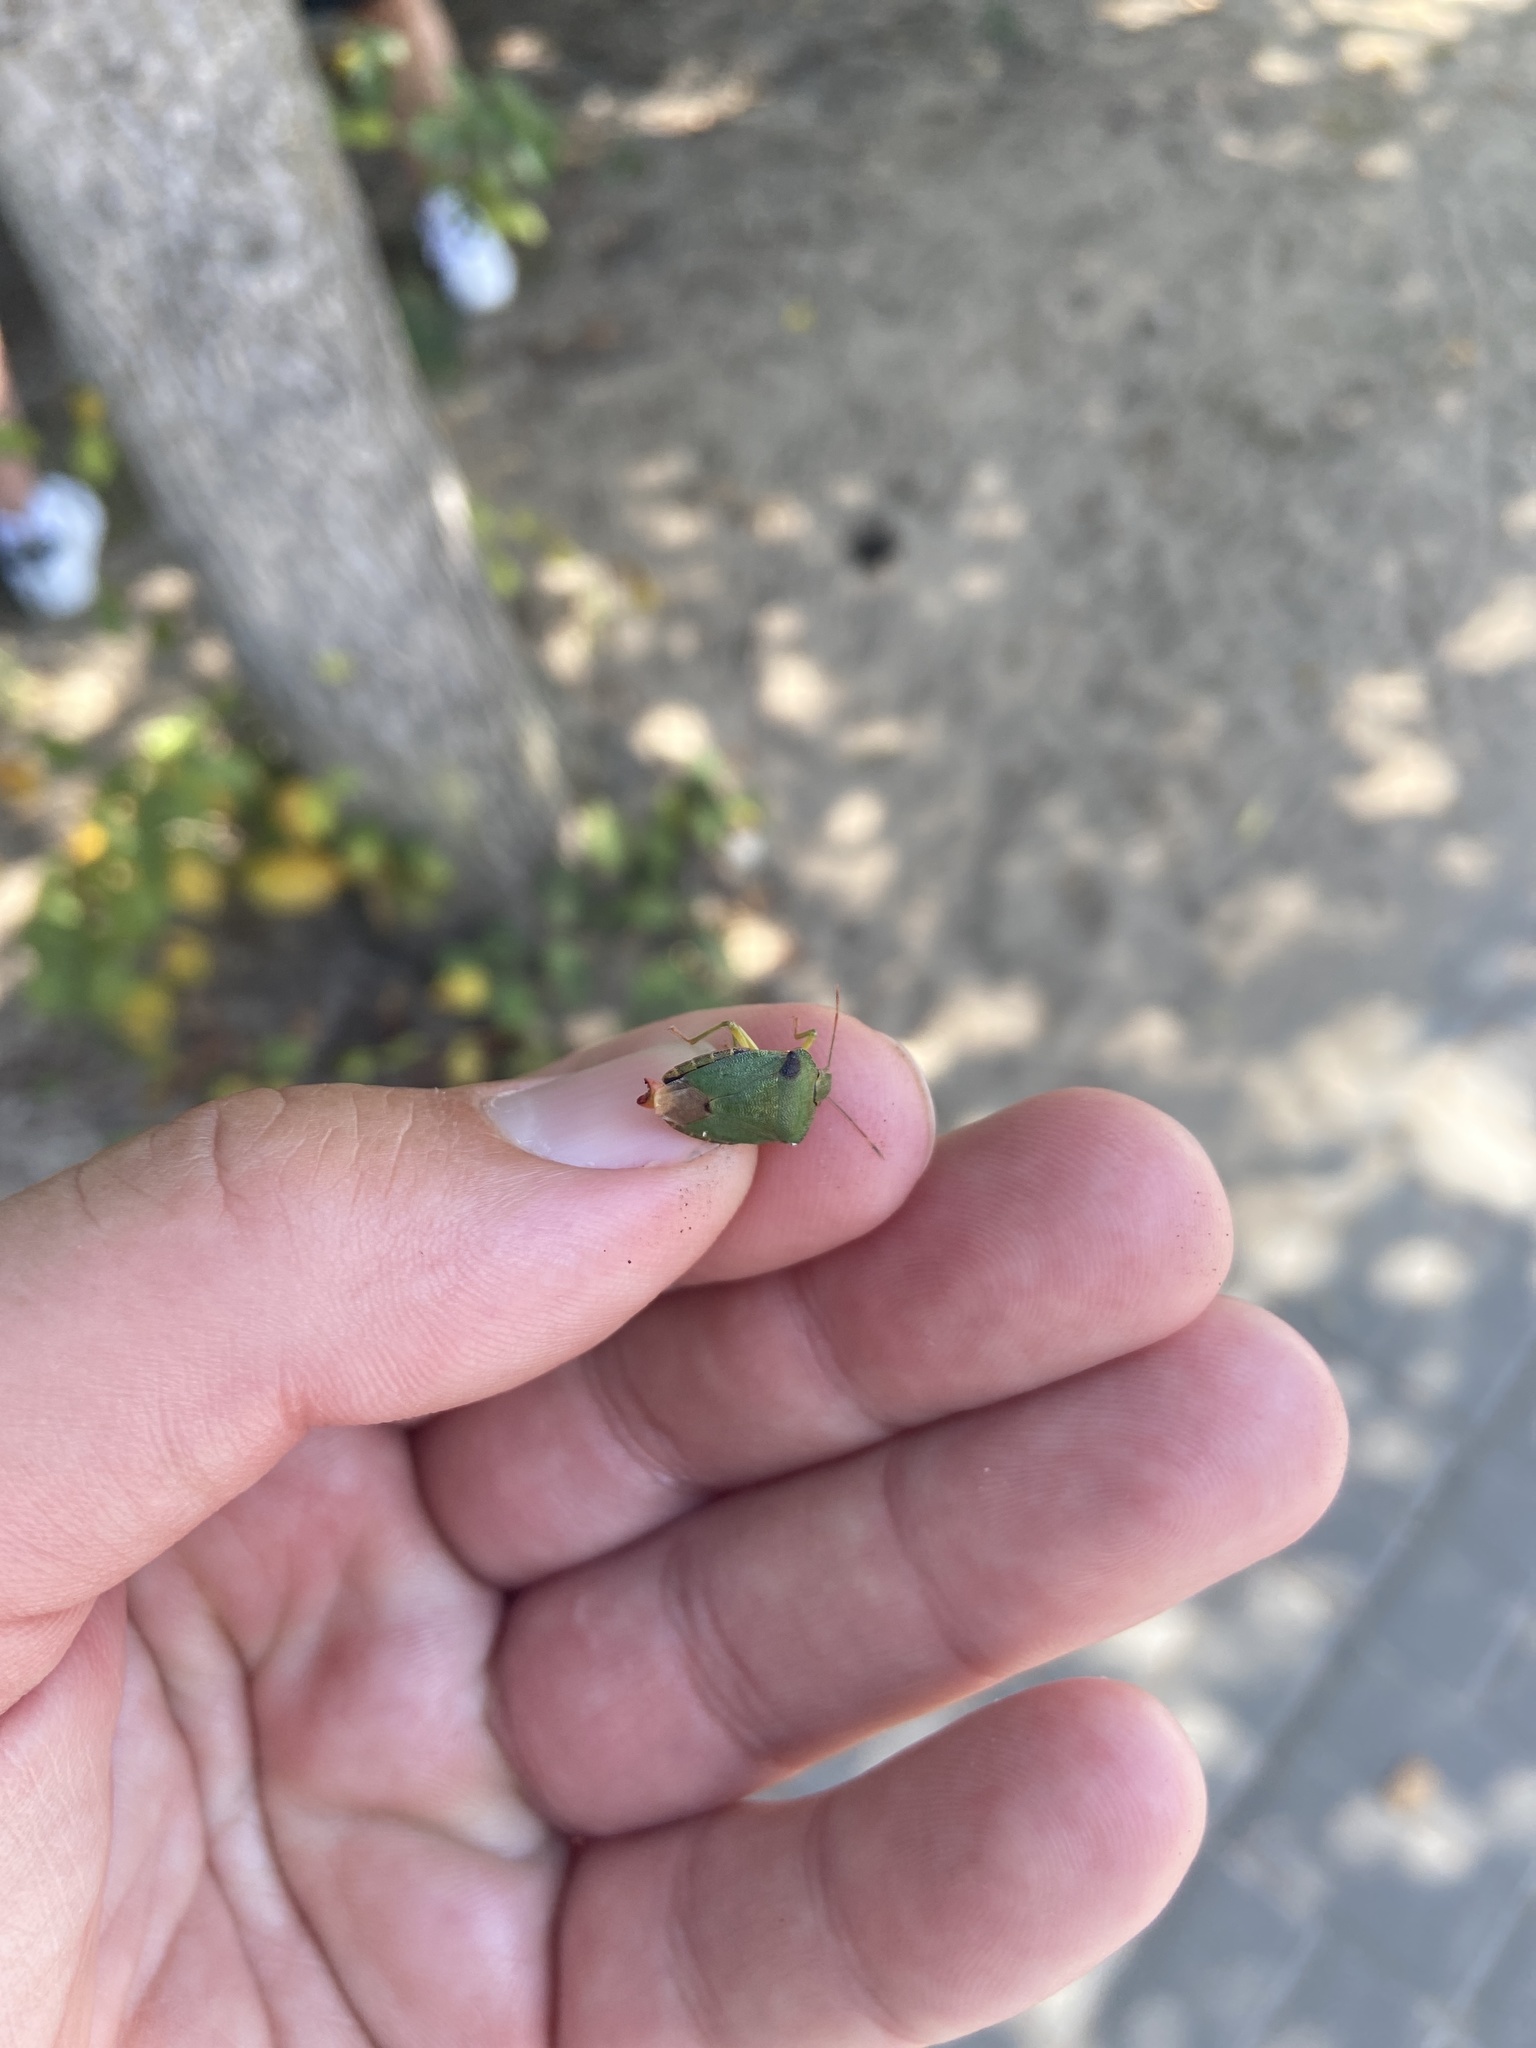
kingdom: Animalia
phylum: Arthropoda
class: Insecta
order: Hemiptera
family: Pentatomidae
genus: Palomena
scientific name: Palomena prasina
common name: Green shieldbug
